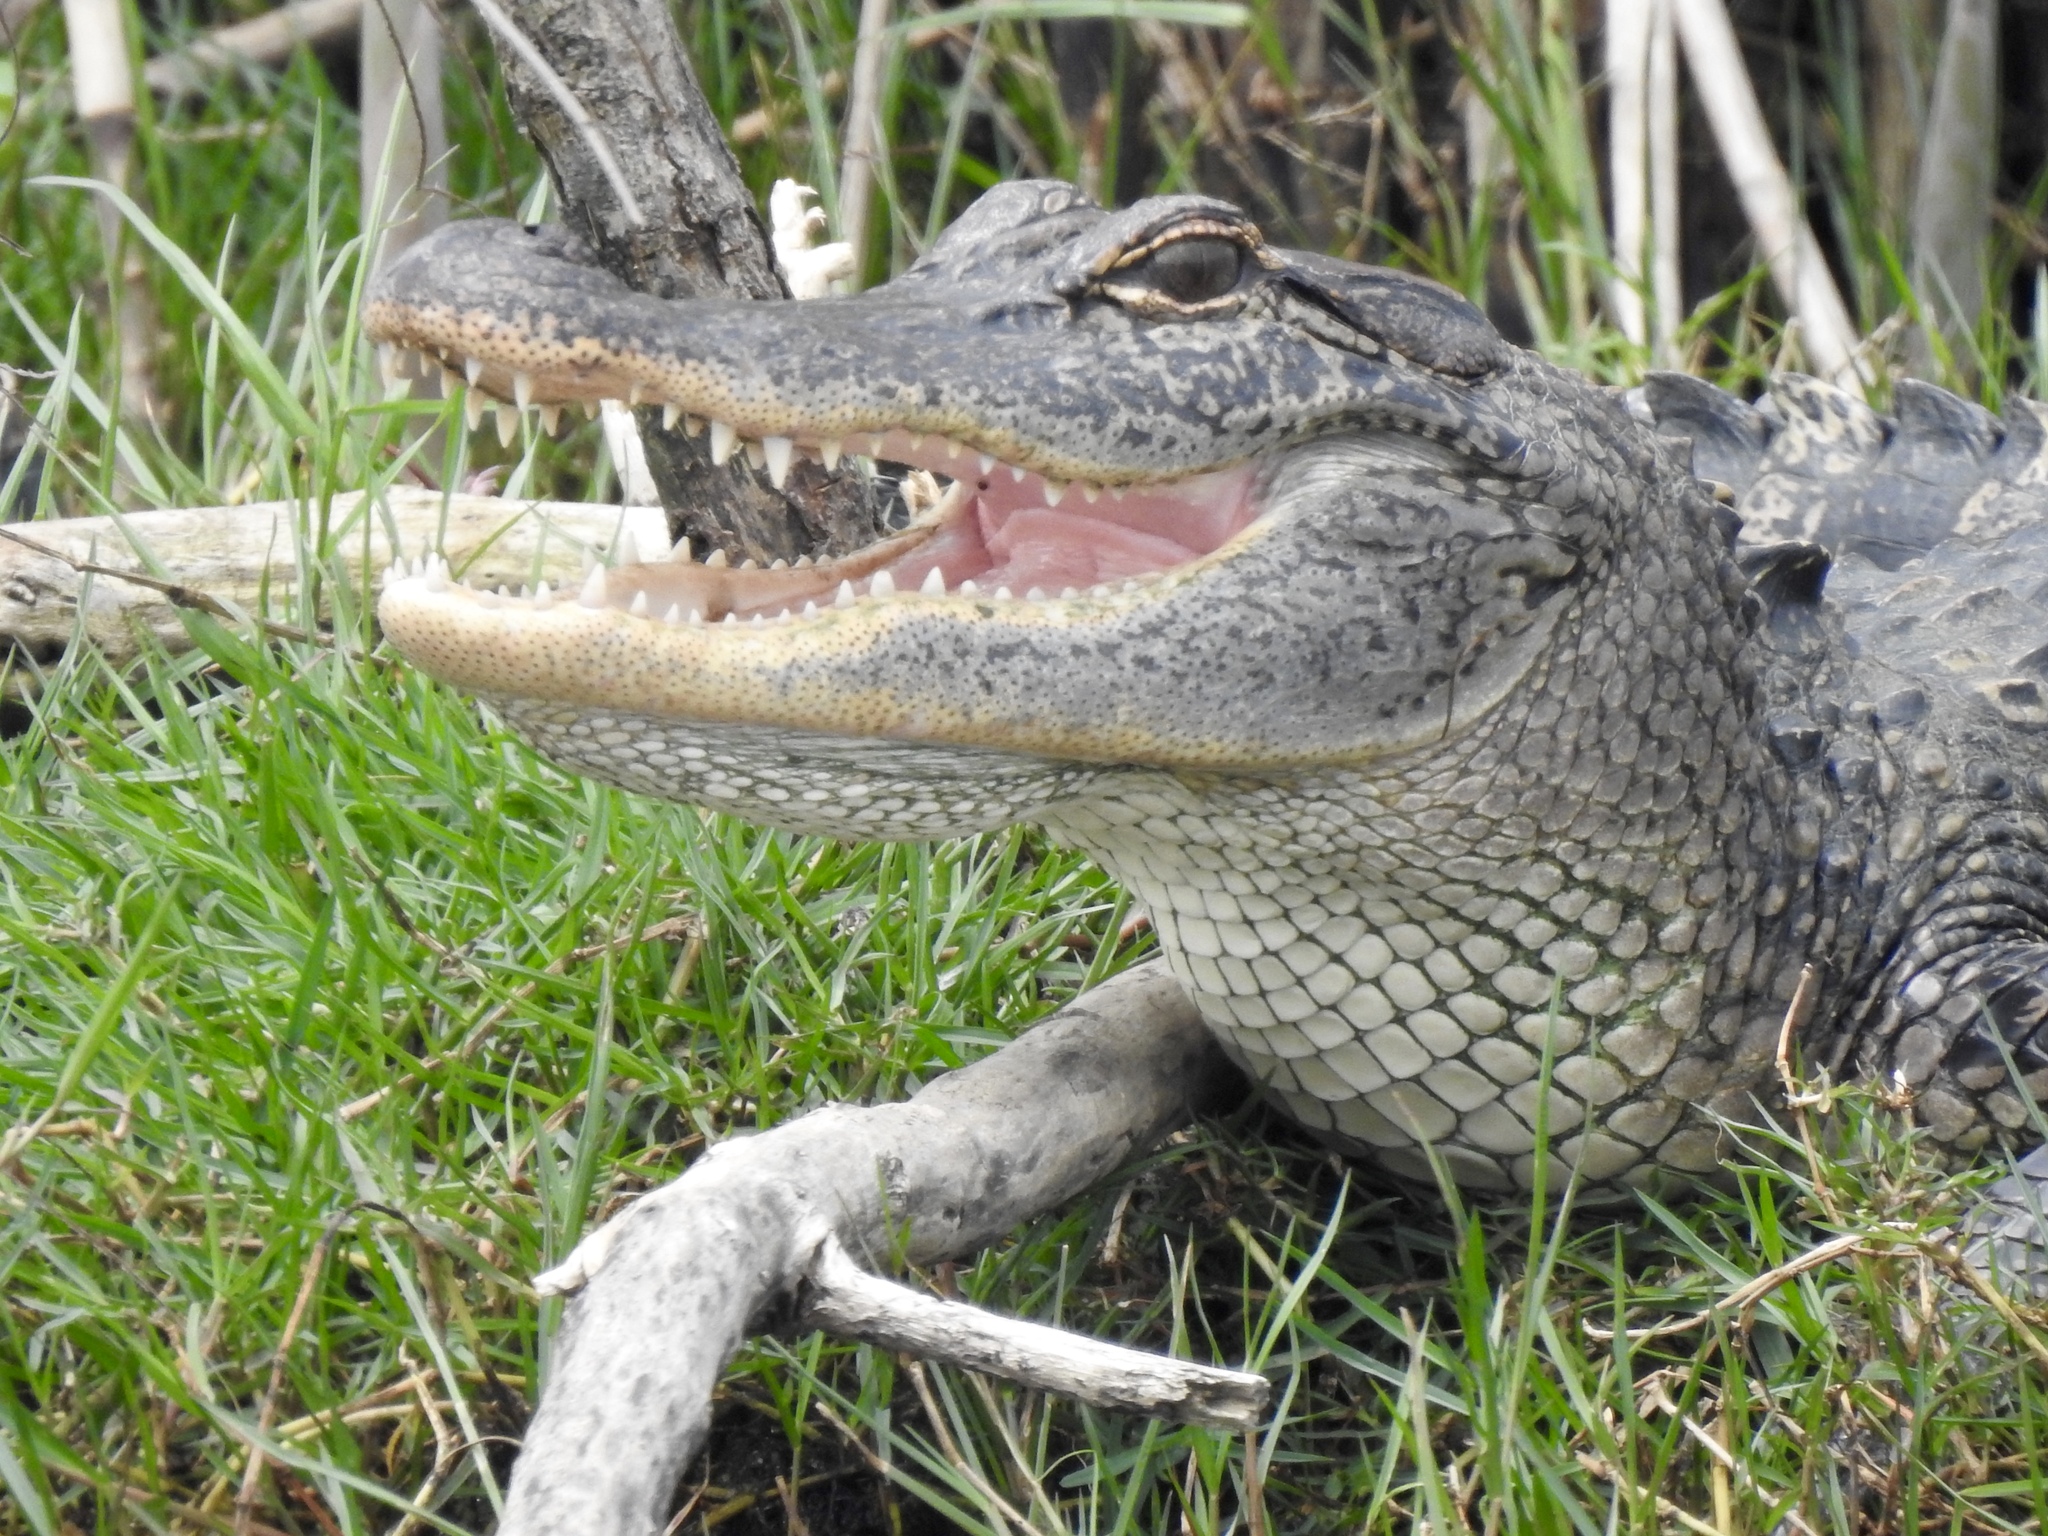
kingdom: Animalia
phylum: Chordata
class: Crocodylia
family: Alligatoridae
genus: Alligator
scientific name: Alligator mississippiensis
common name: American alligator
